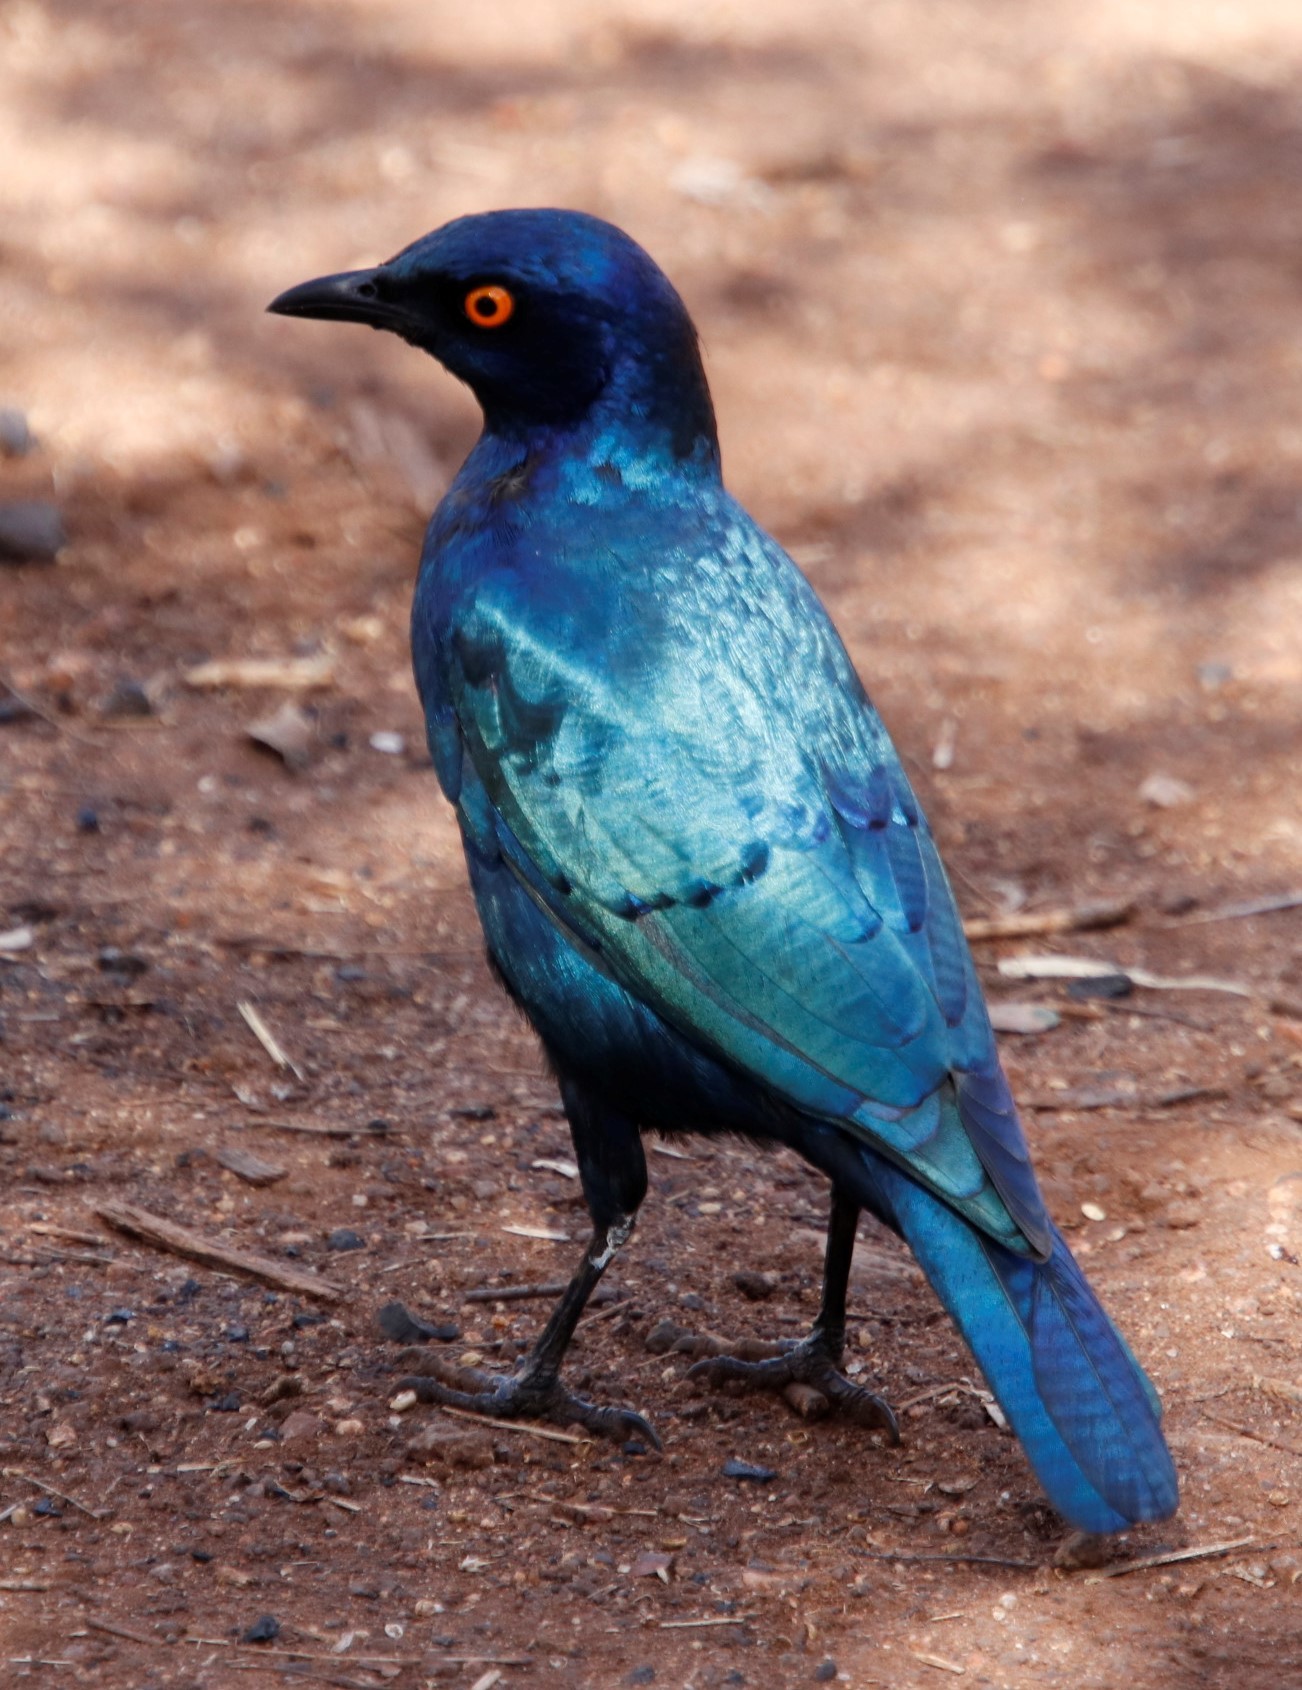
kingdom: Animalia
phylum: Chordata
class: Aves
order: Passeriformes
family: Sturnidae
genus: Lamprotornis
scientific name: Lamprotornis nitens
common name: Cape starling
